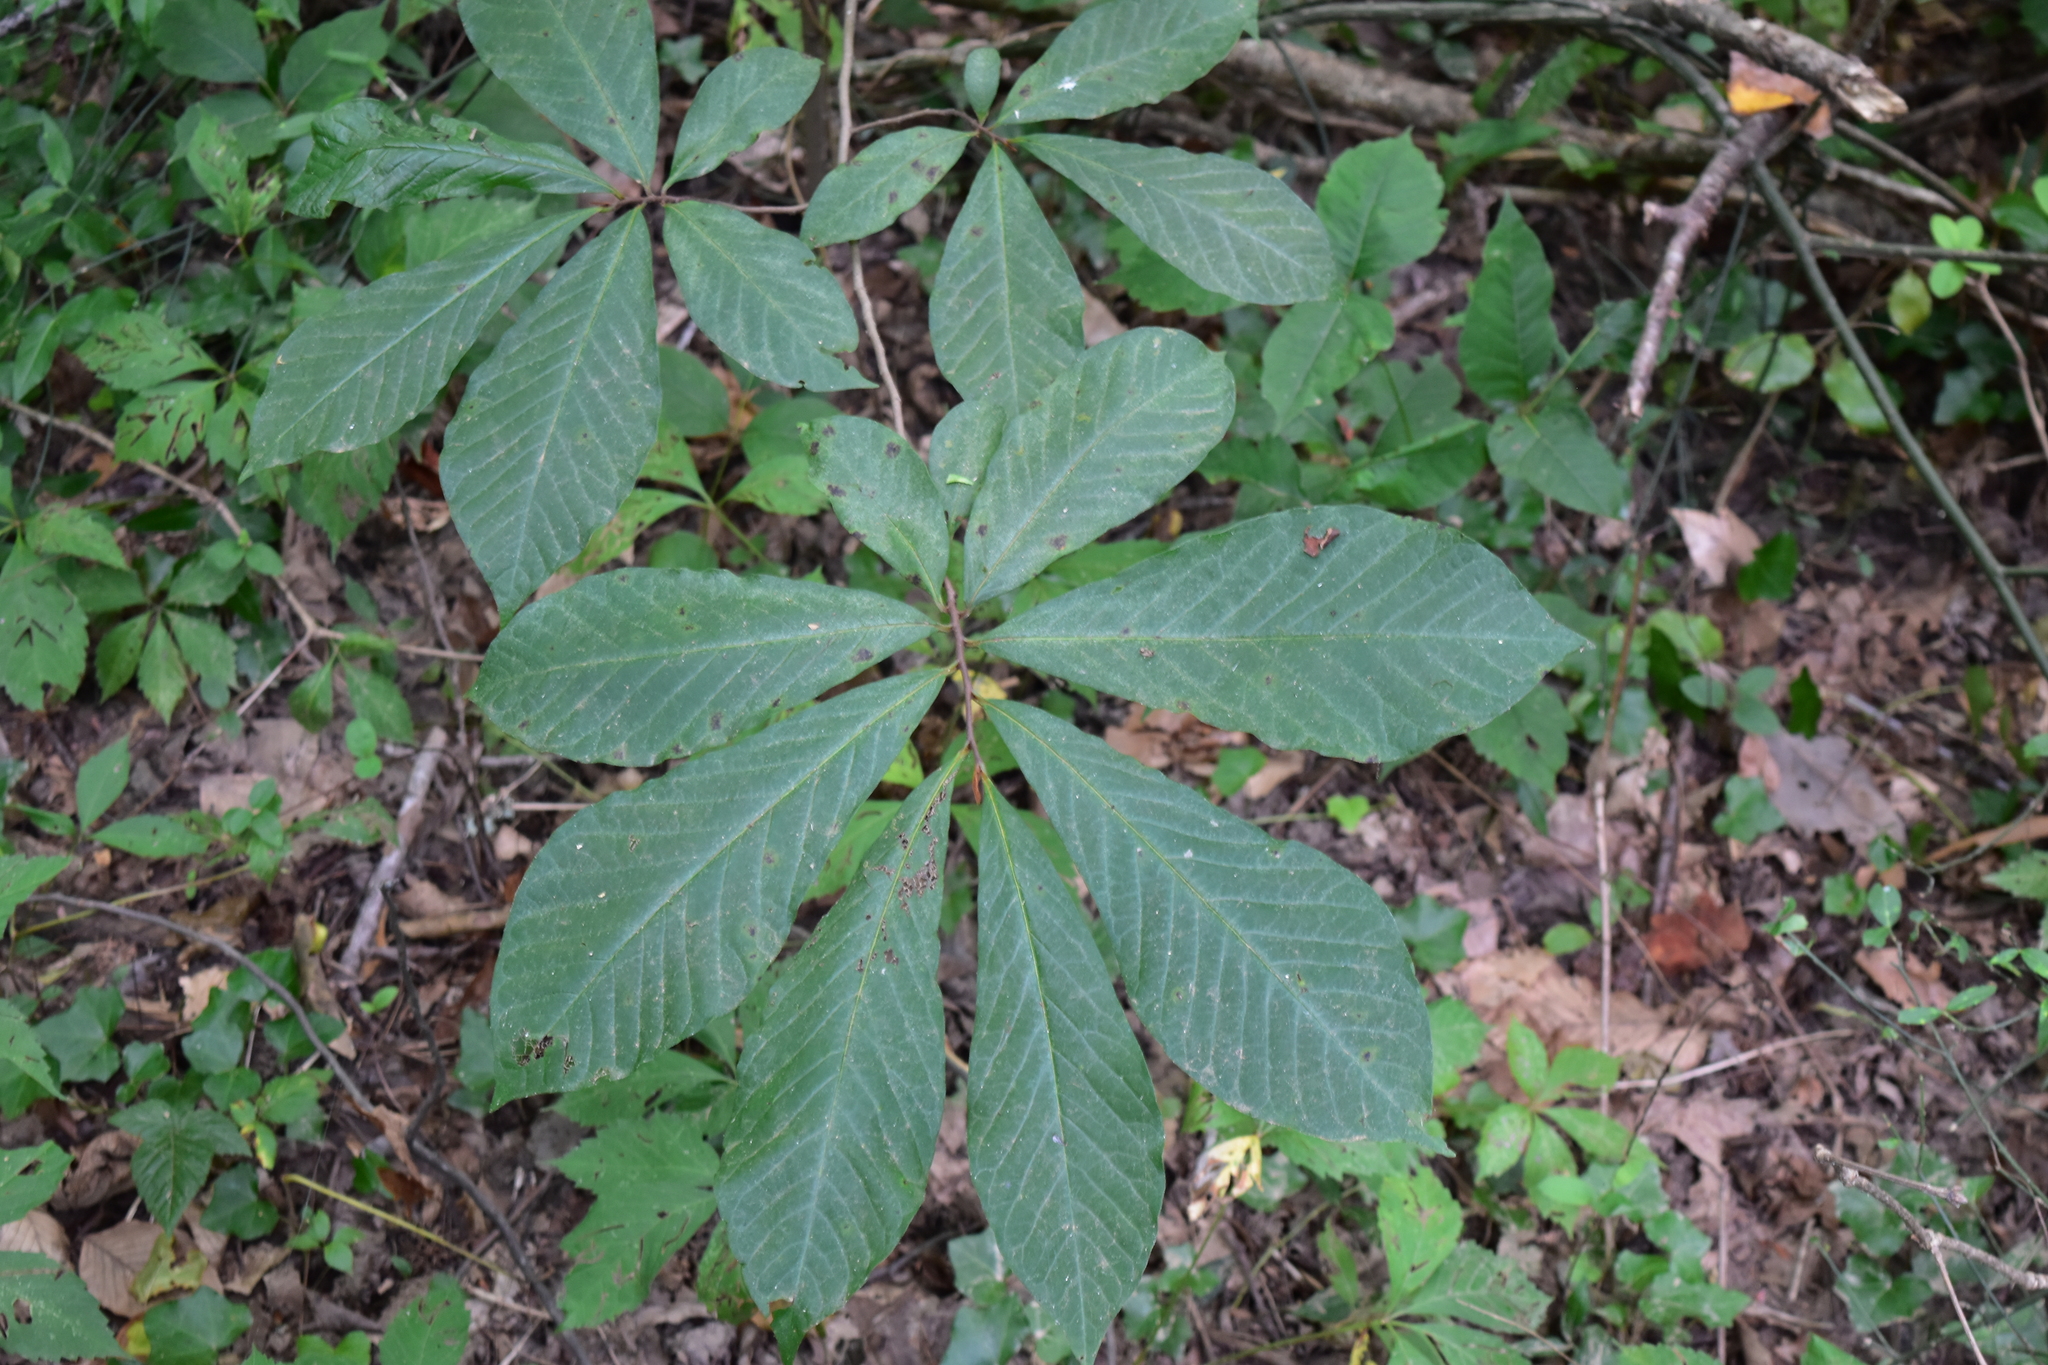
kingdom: Plantae
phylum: Tracheophyta
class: Magnoliopsida
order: Magnoliales
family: Annonaceae
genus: Asimina
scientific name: Asimina triloba
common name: Dog-banana
